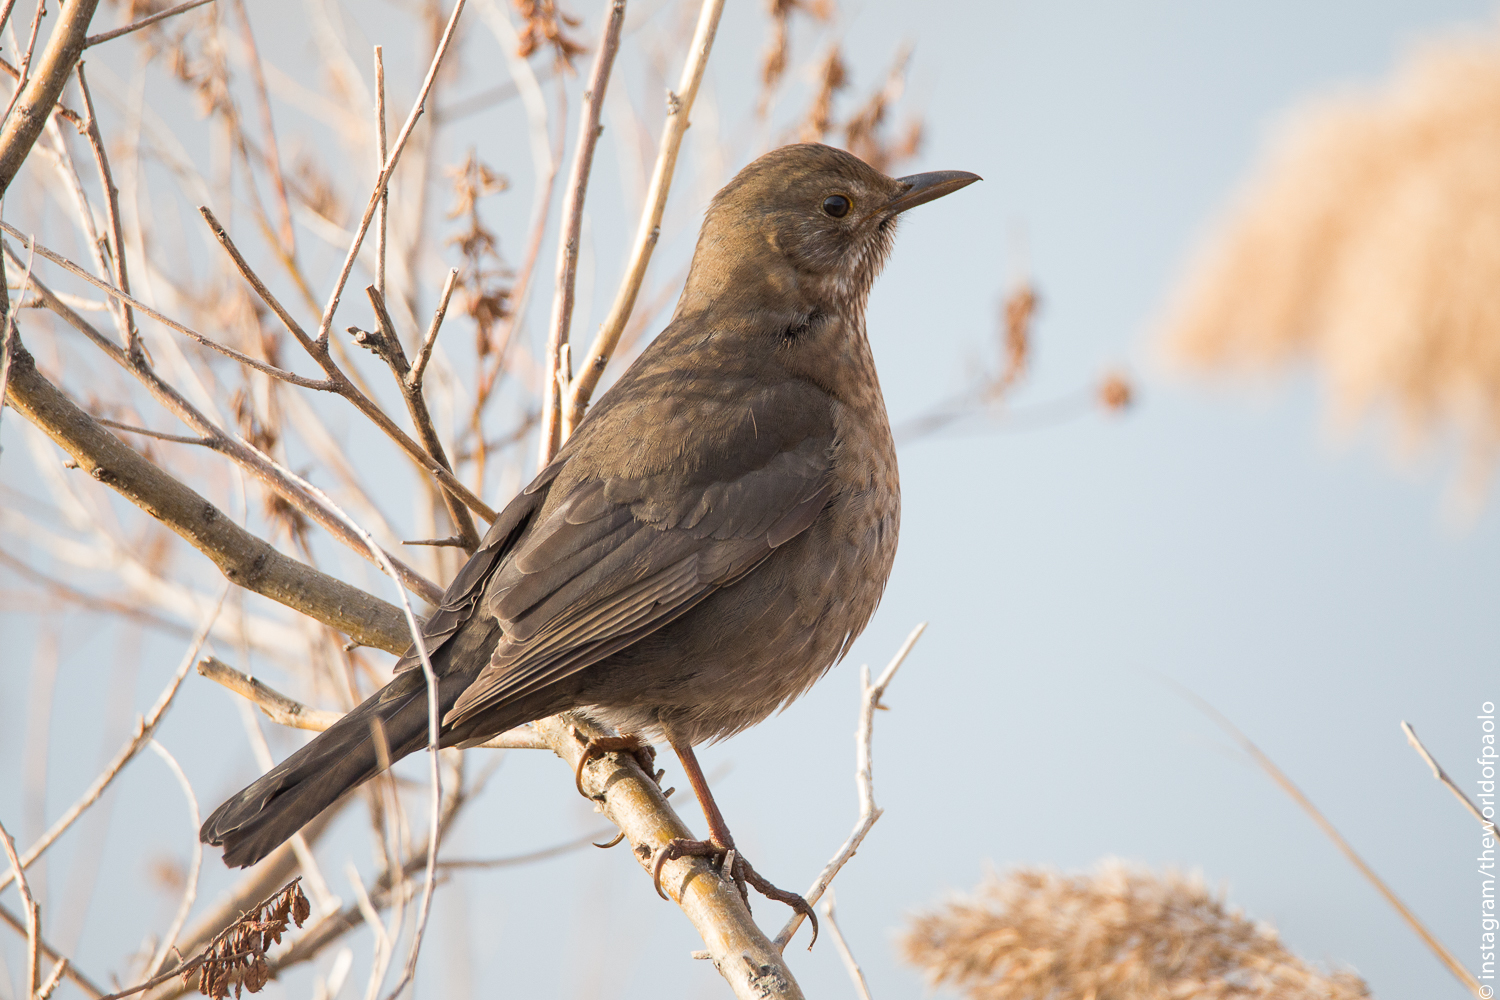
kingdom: Animalia
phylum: Chordata
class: Aves
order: Passeriformes
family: Turdidae
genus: Turdus
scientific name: Turdus merula
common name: Common blackbird
